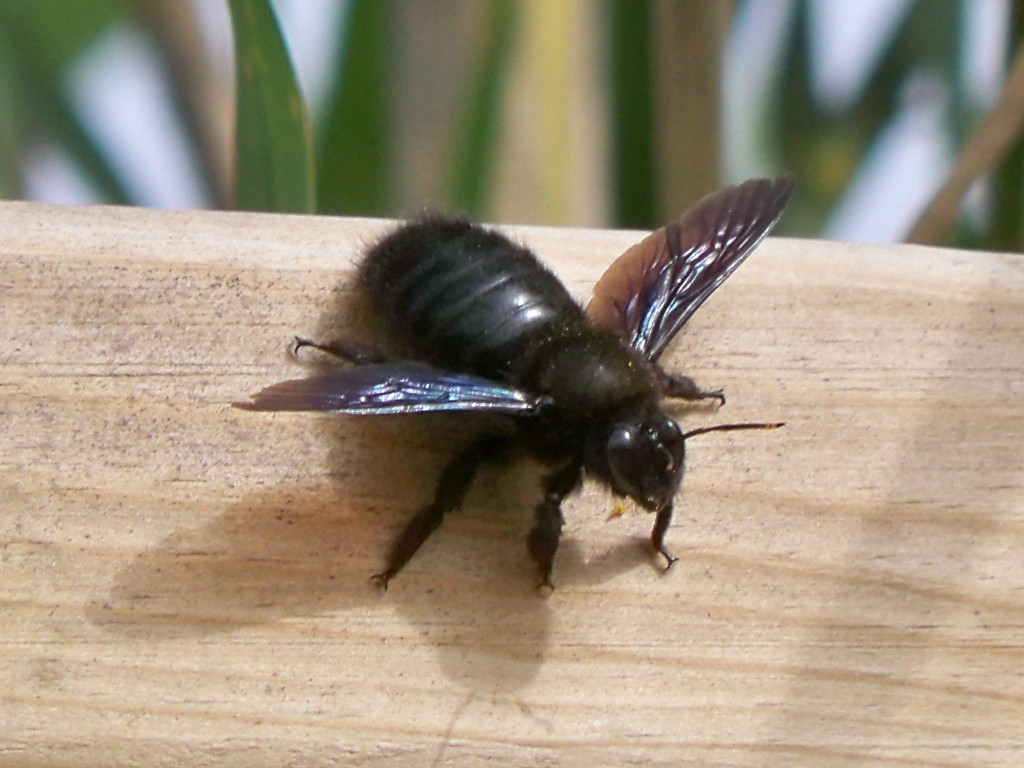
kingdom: Animalia
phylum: Arthropoda
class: Insecta
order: Hymenoptera
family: Apidae
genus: Xylocopa
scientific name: Xylocopa violacea
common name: Violet carpenter bee
